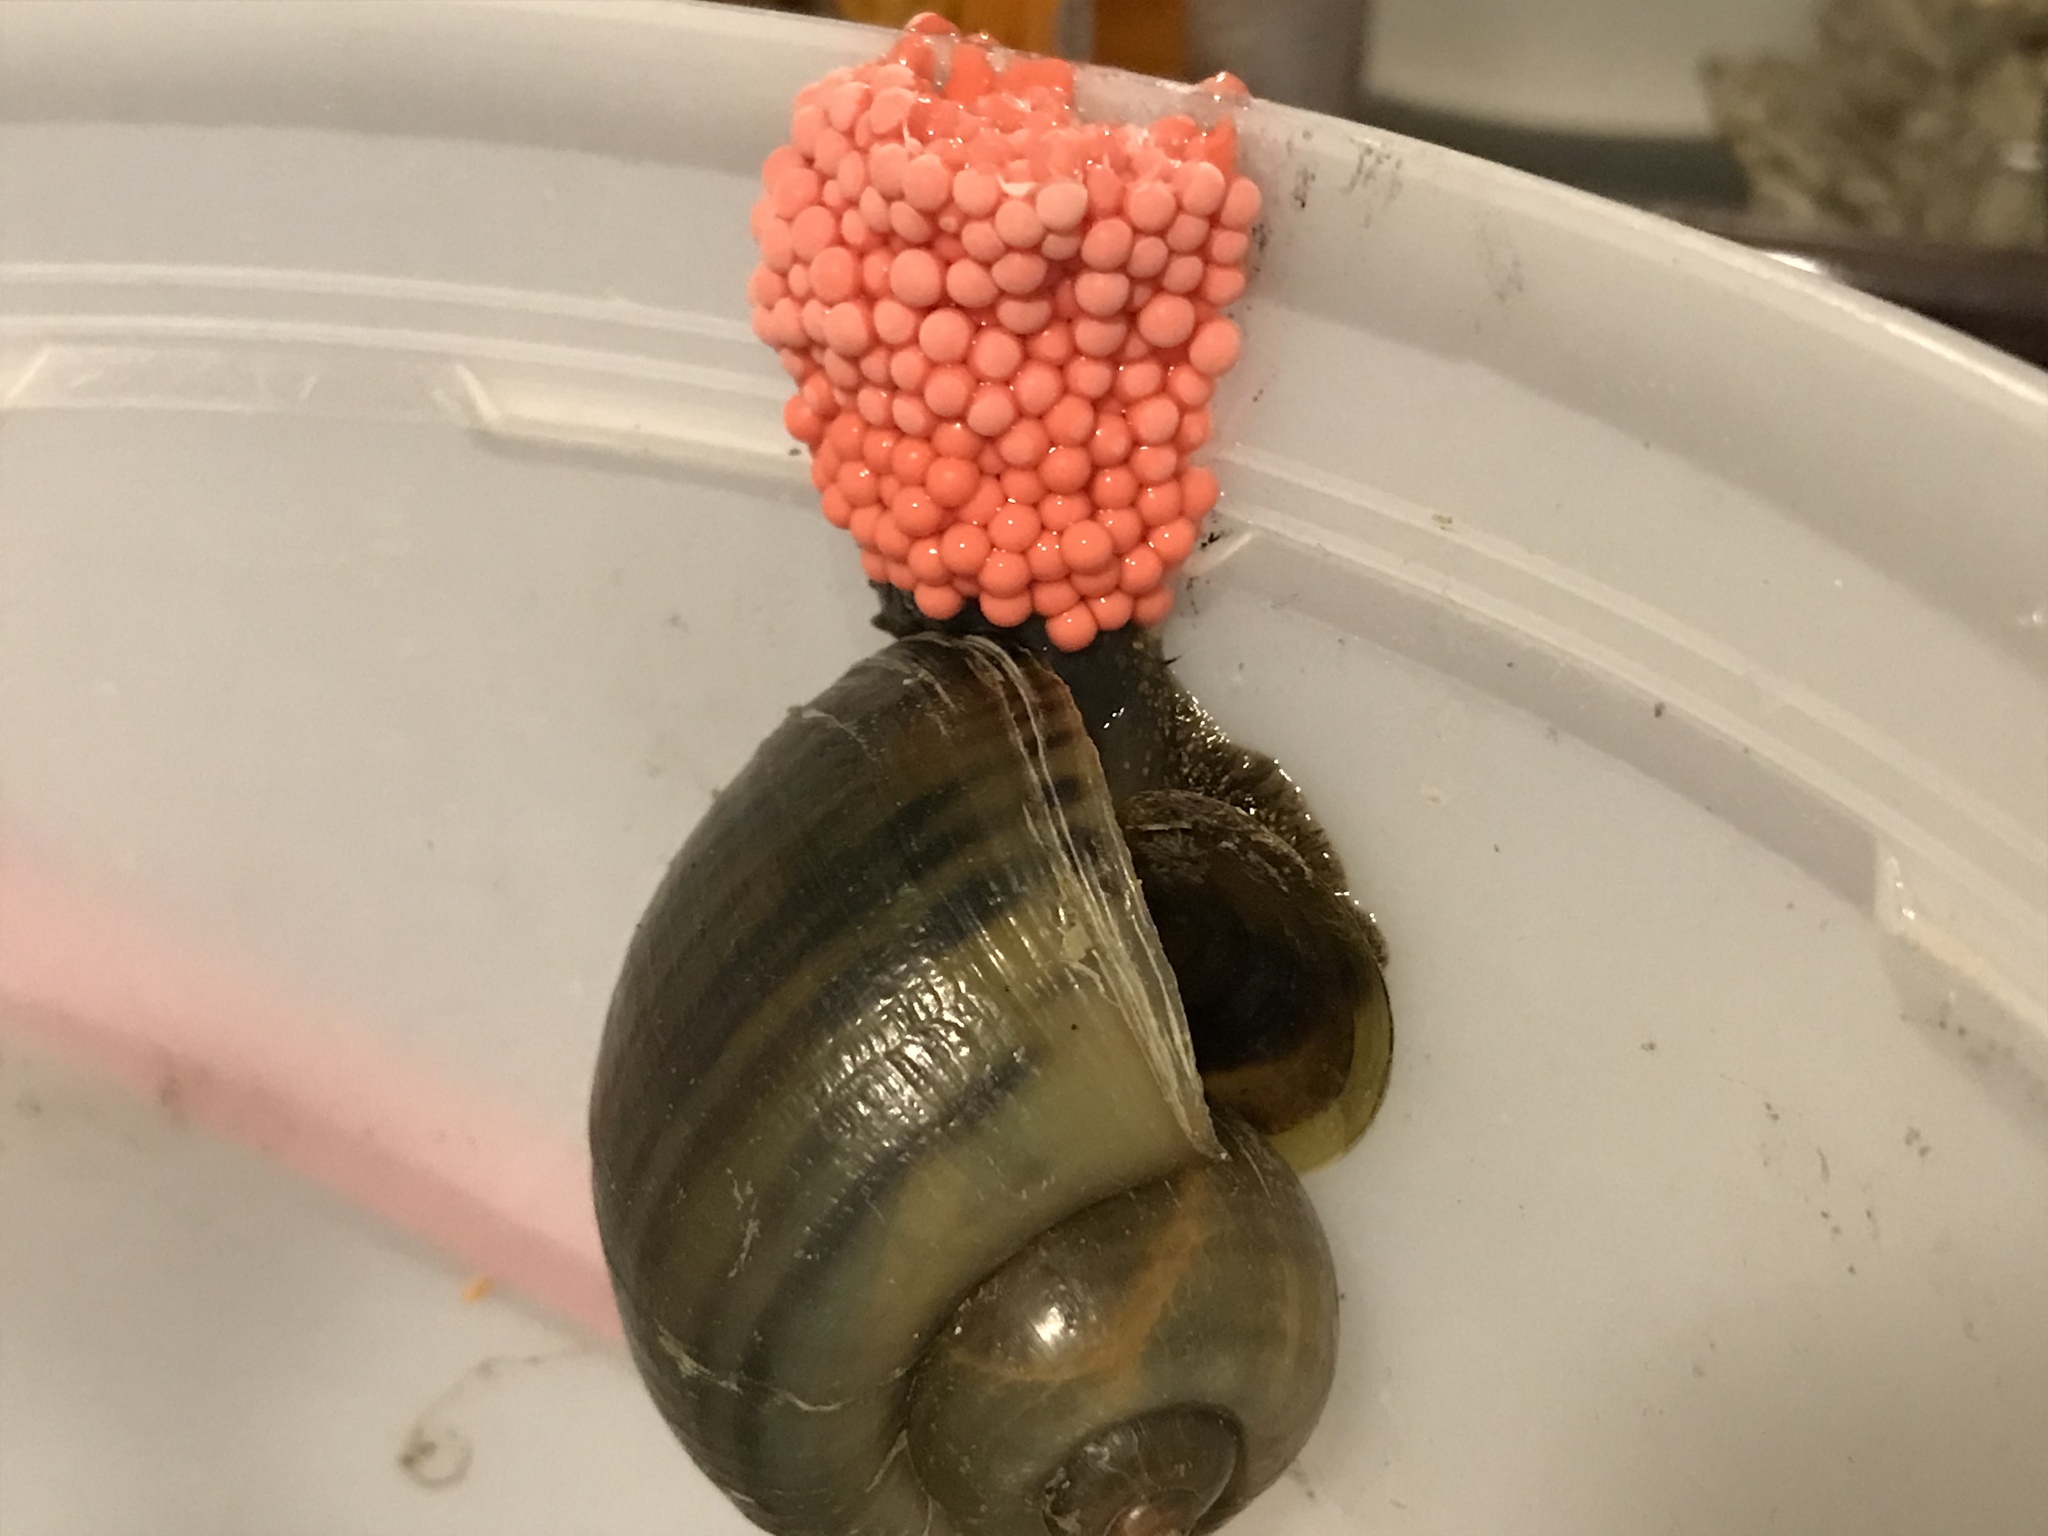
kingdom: Animalia
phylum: Mollusca
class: Gastropoda
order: Architaenioglossa
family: Ampullariidae
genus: Pomacea
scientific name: Pomacea canaliculata
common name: Channeled applesnail
